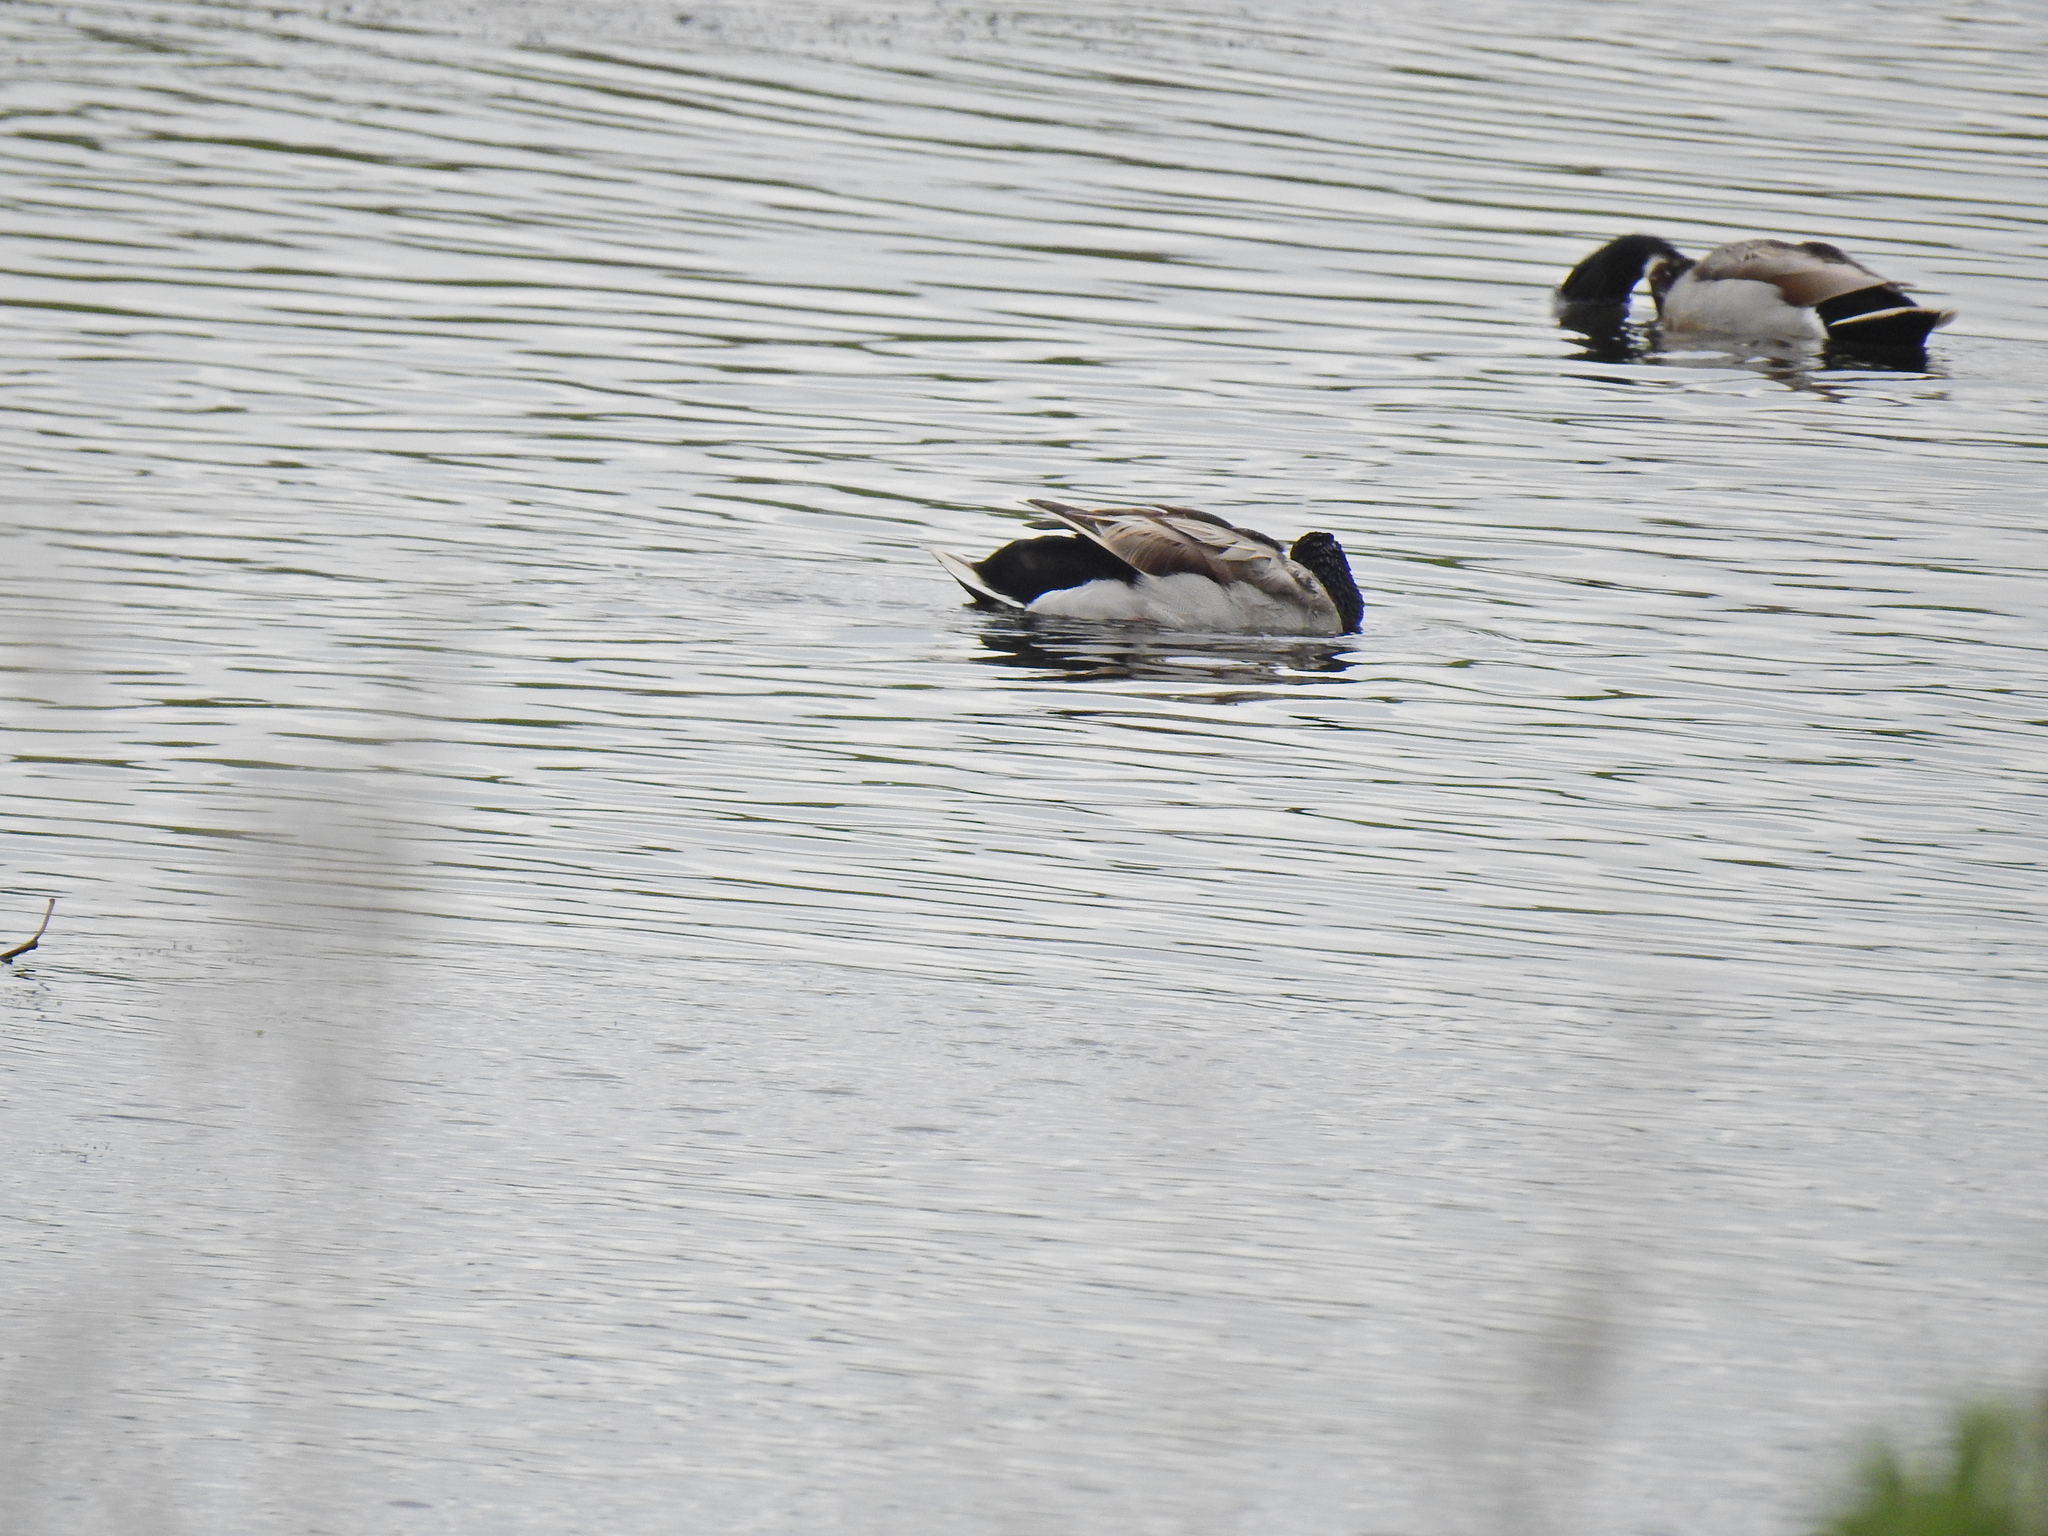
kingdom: Animalia
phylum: Chordata
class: Aves
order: Anseriformes
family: Anatidae
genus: Anas
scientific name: Anas platyrhynchos
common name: Mallard
